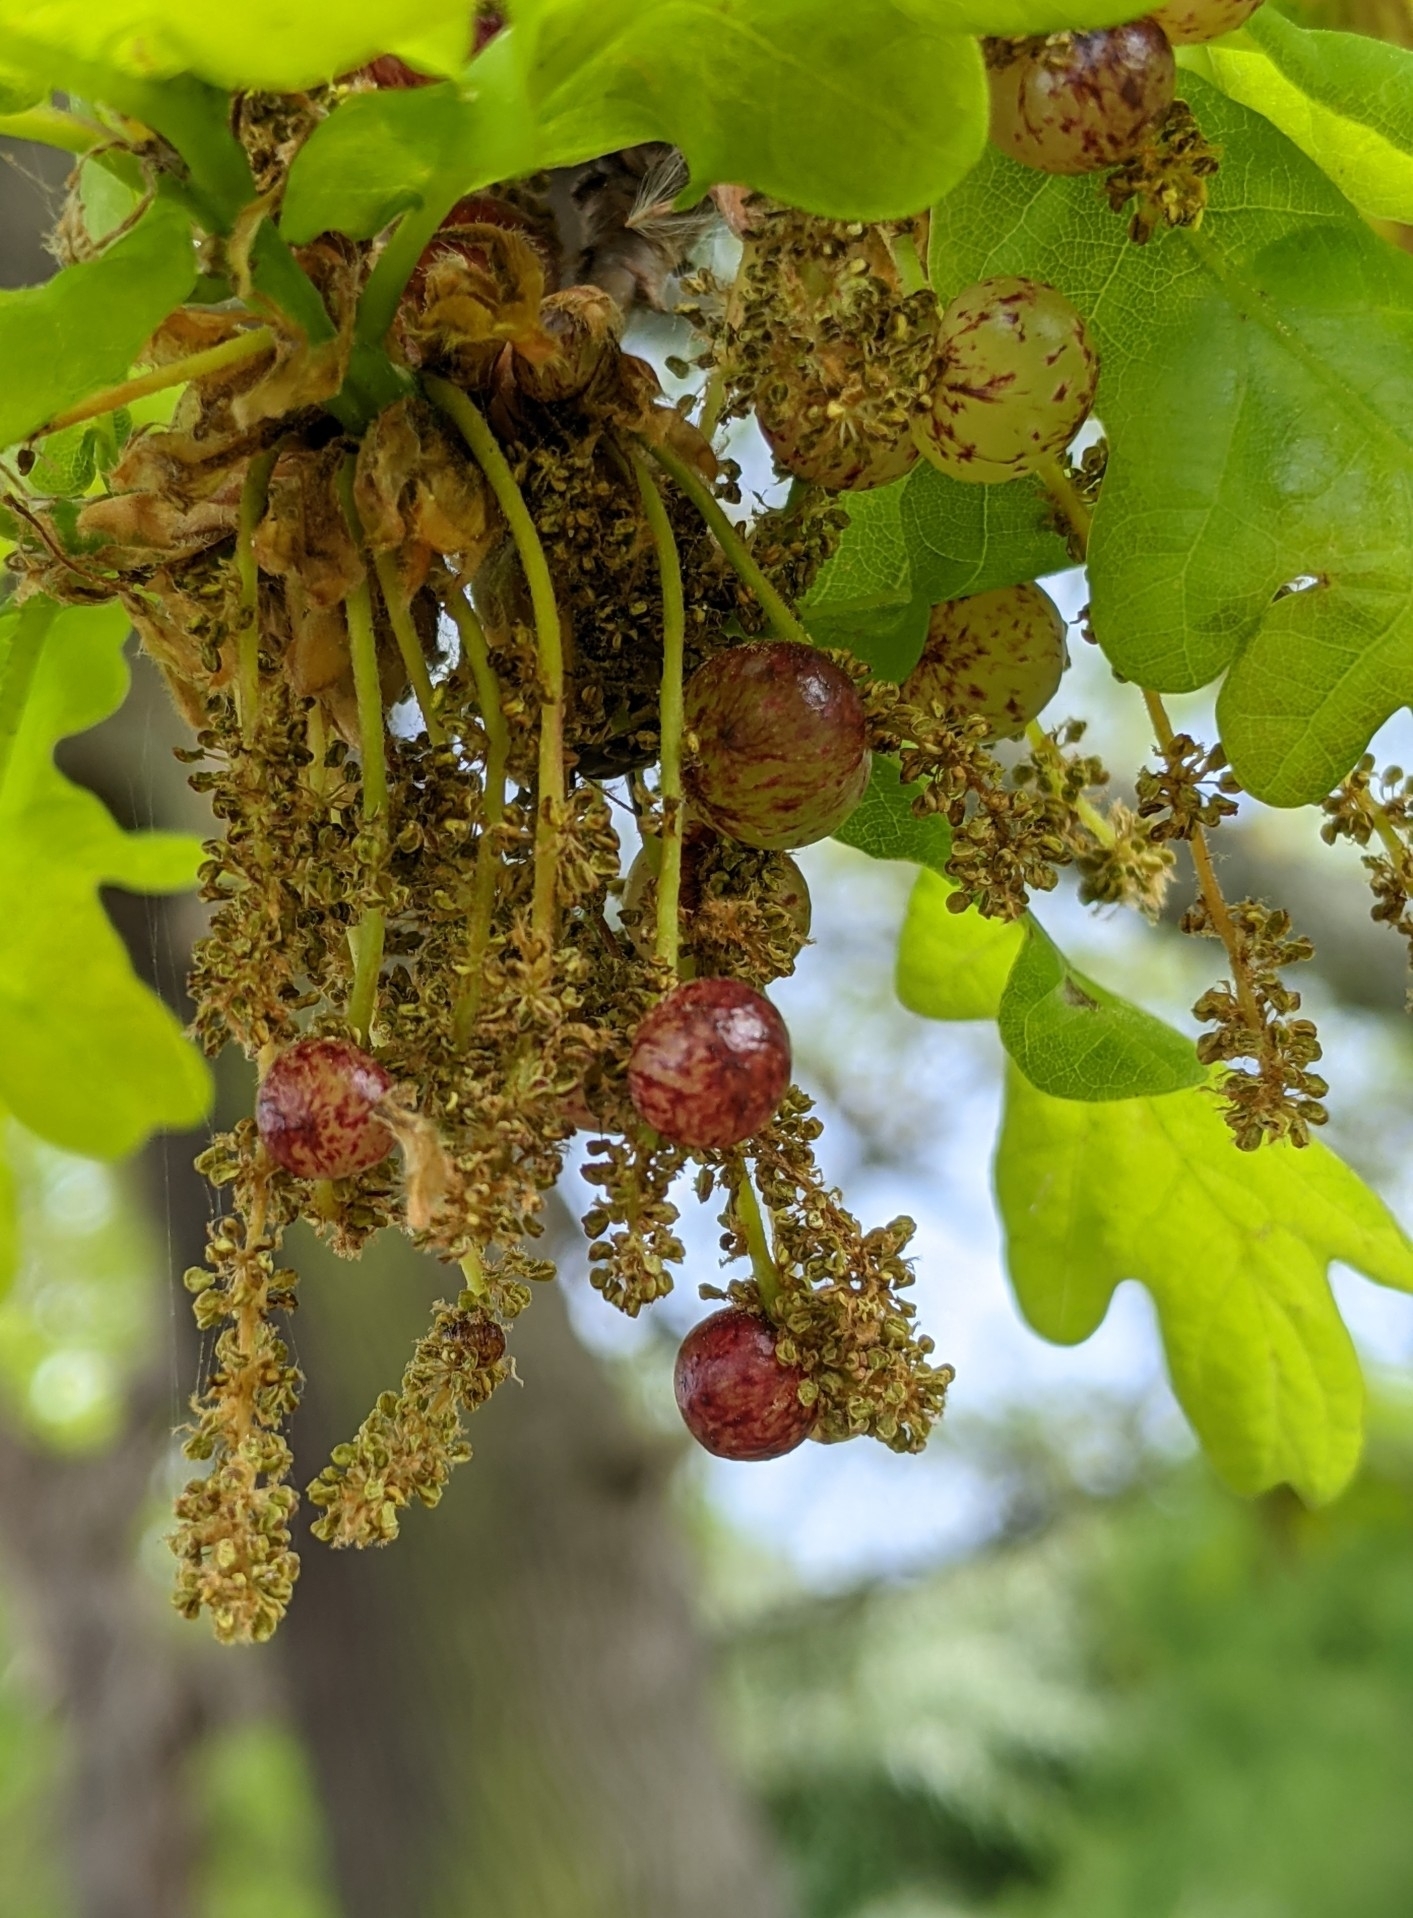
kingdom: Plantae
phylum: Tracheophyta
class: Magnoliopsida
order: Fagales
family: Fagaceae
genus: Quercus
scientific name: Quercus robur
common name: Pedunculate oak
